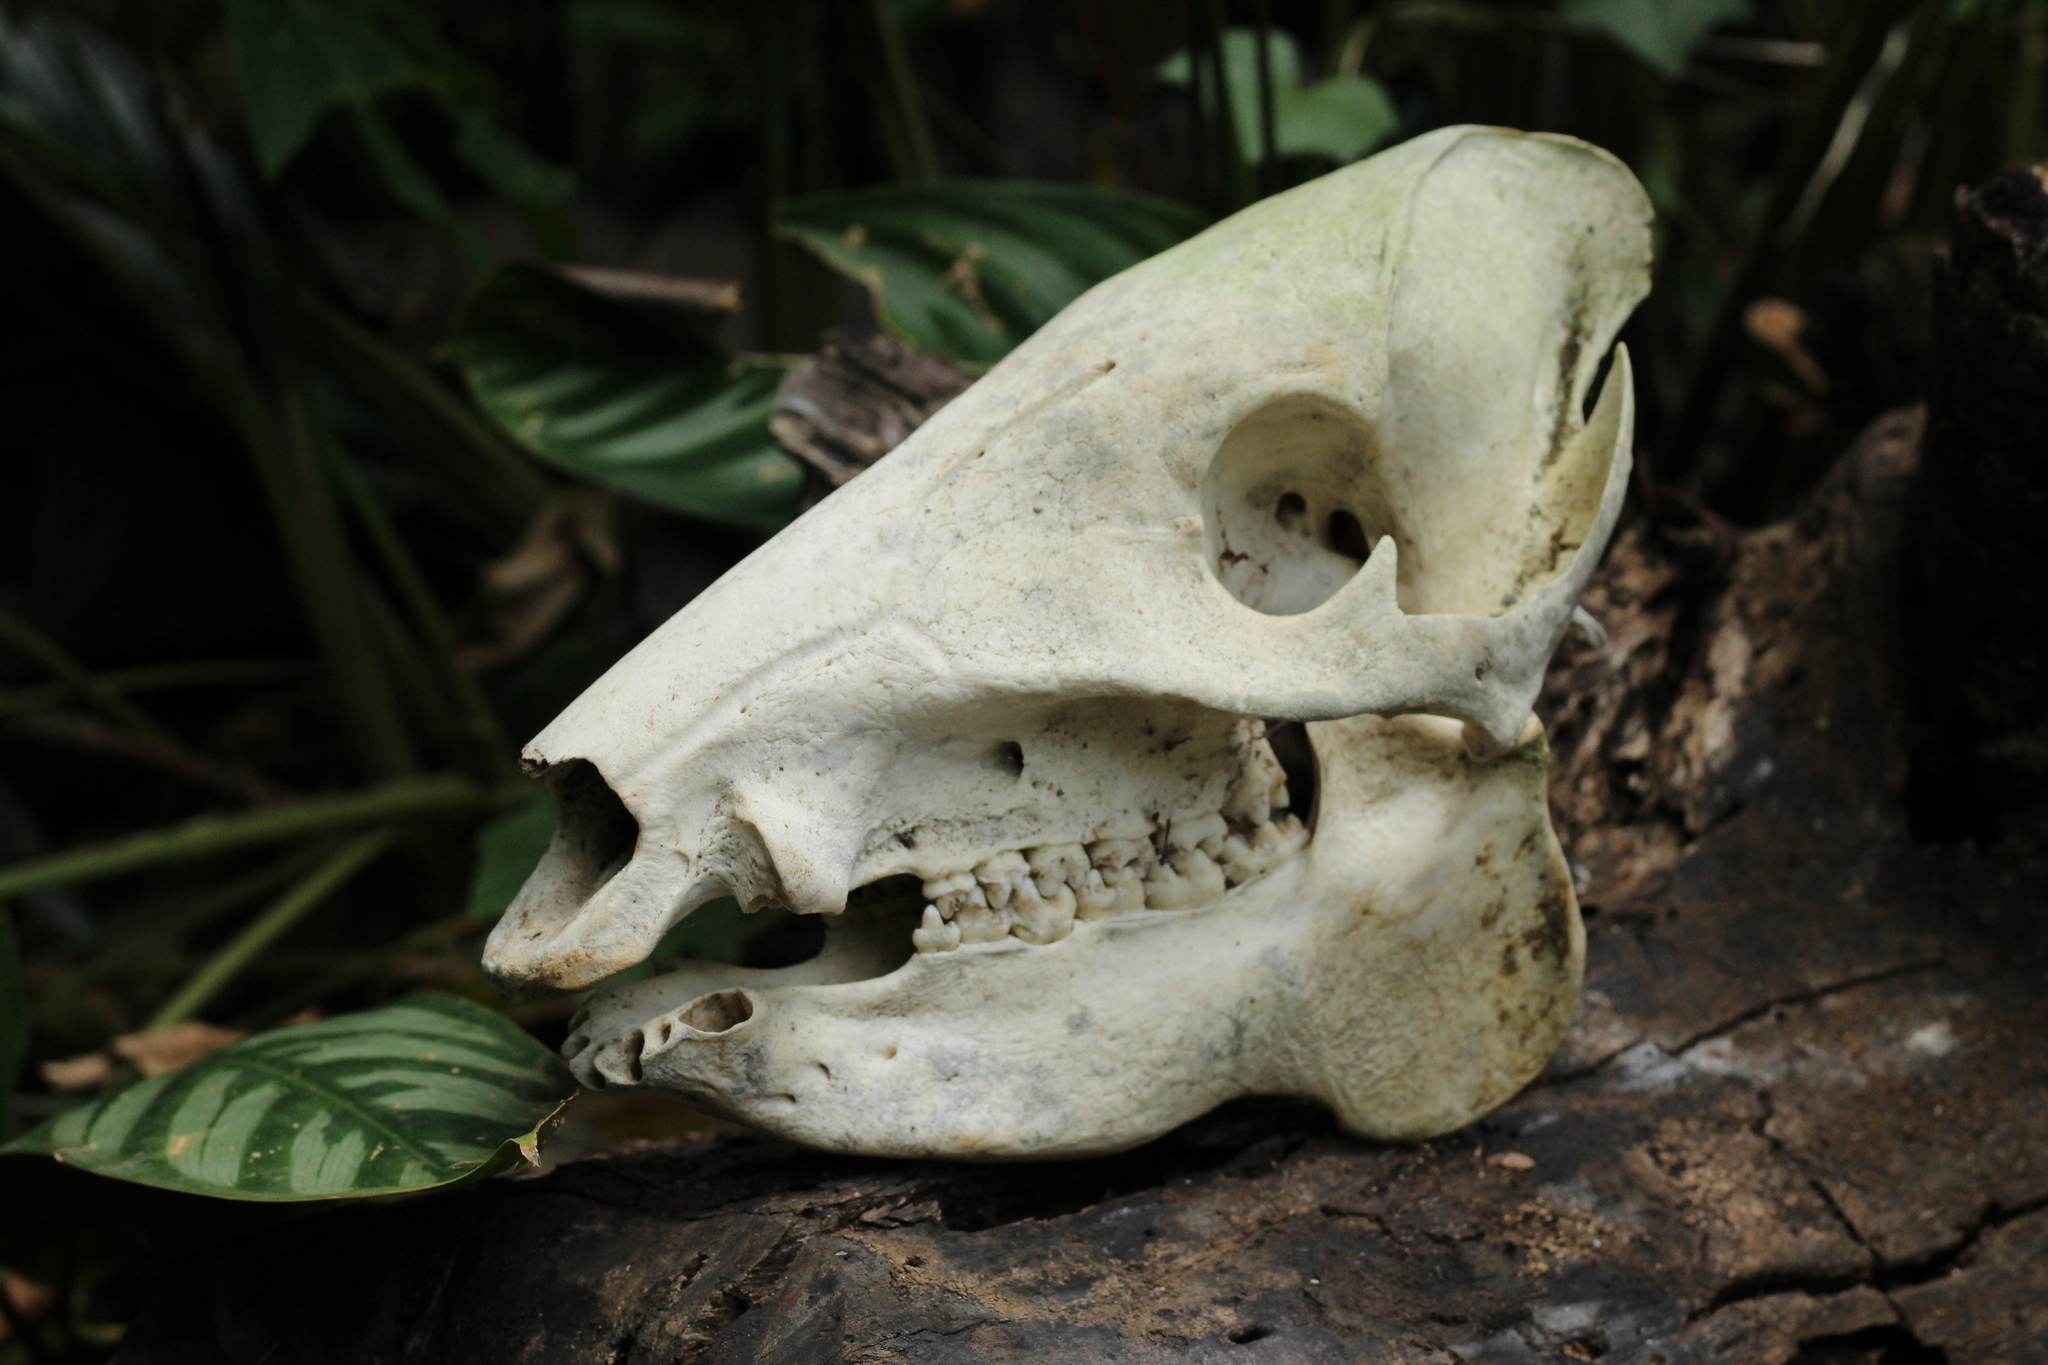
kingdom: Animalia
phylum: Chordata
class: Mammalia
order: Artiodactyla
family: Tayassuidae
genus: Pecari
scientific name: Pecari tajacu
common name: Collared peccary
